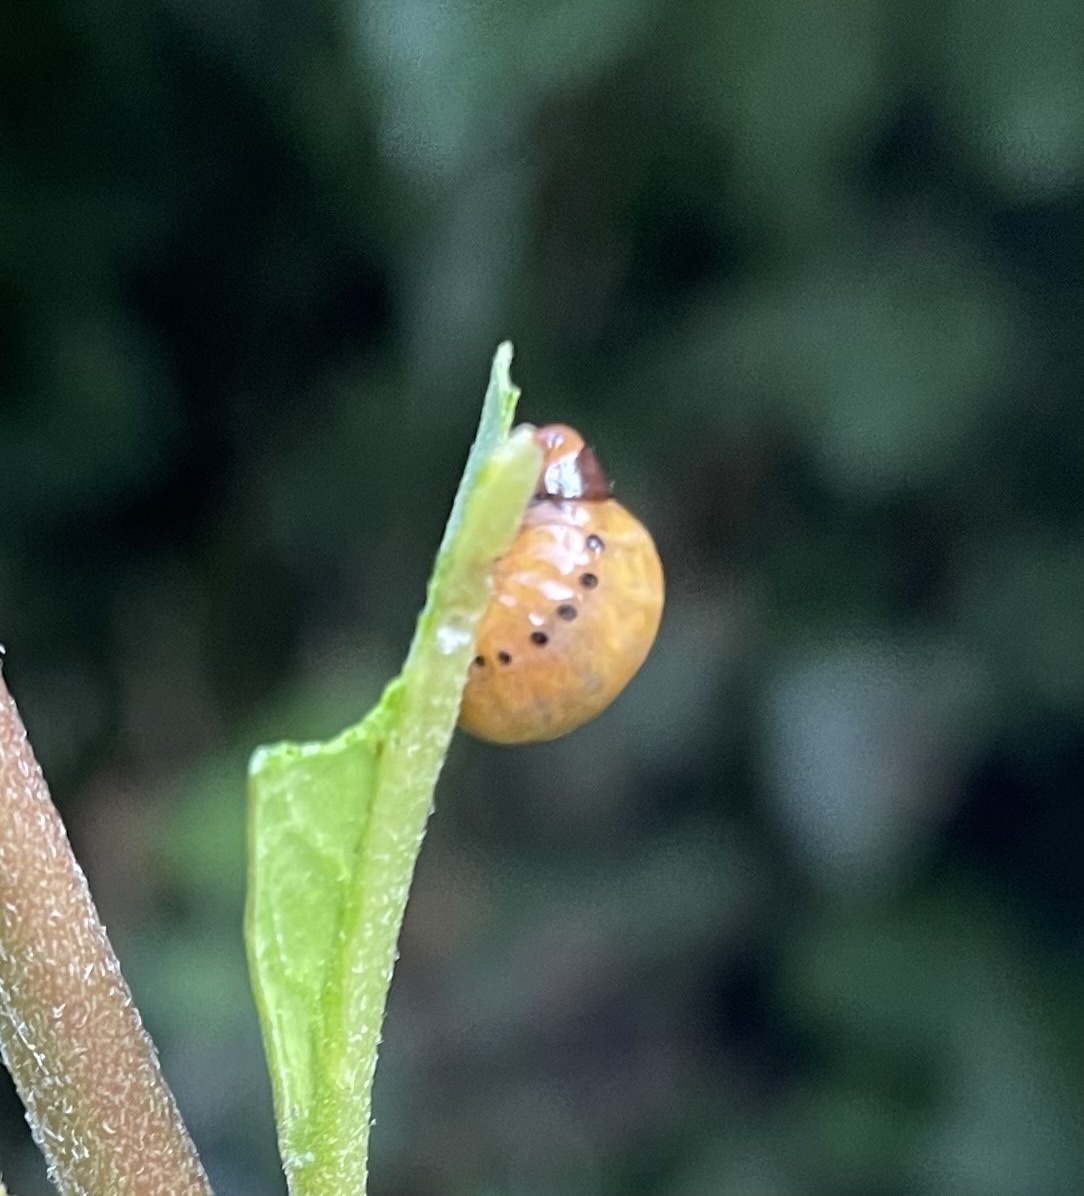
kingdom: Animalia
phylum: Arthropoda
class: Insecta
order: Coleoptera
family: Chrysomelidae
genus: Labidomera
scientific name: Labidomera clivicollis
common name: Swamp milkweed leaf beetle
